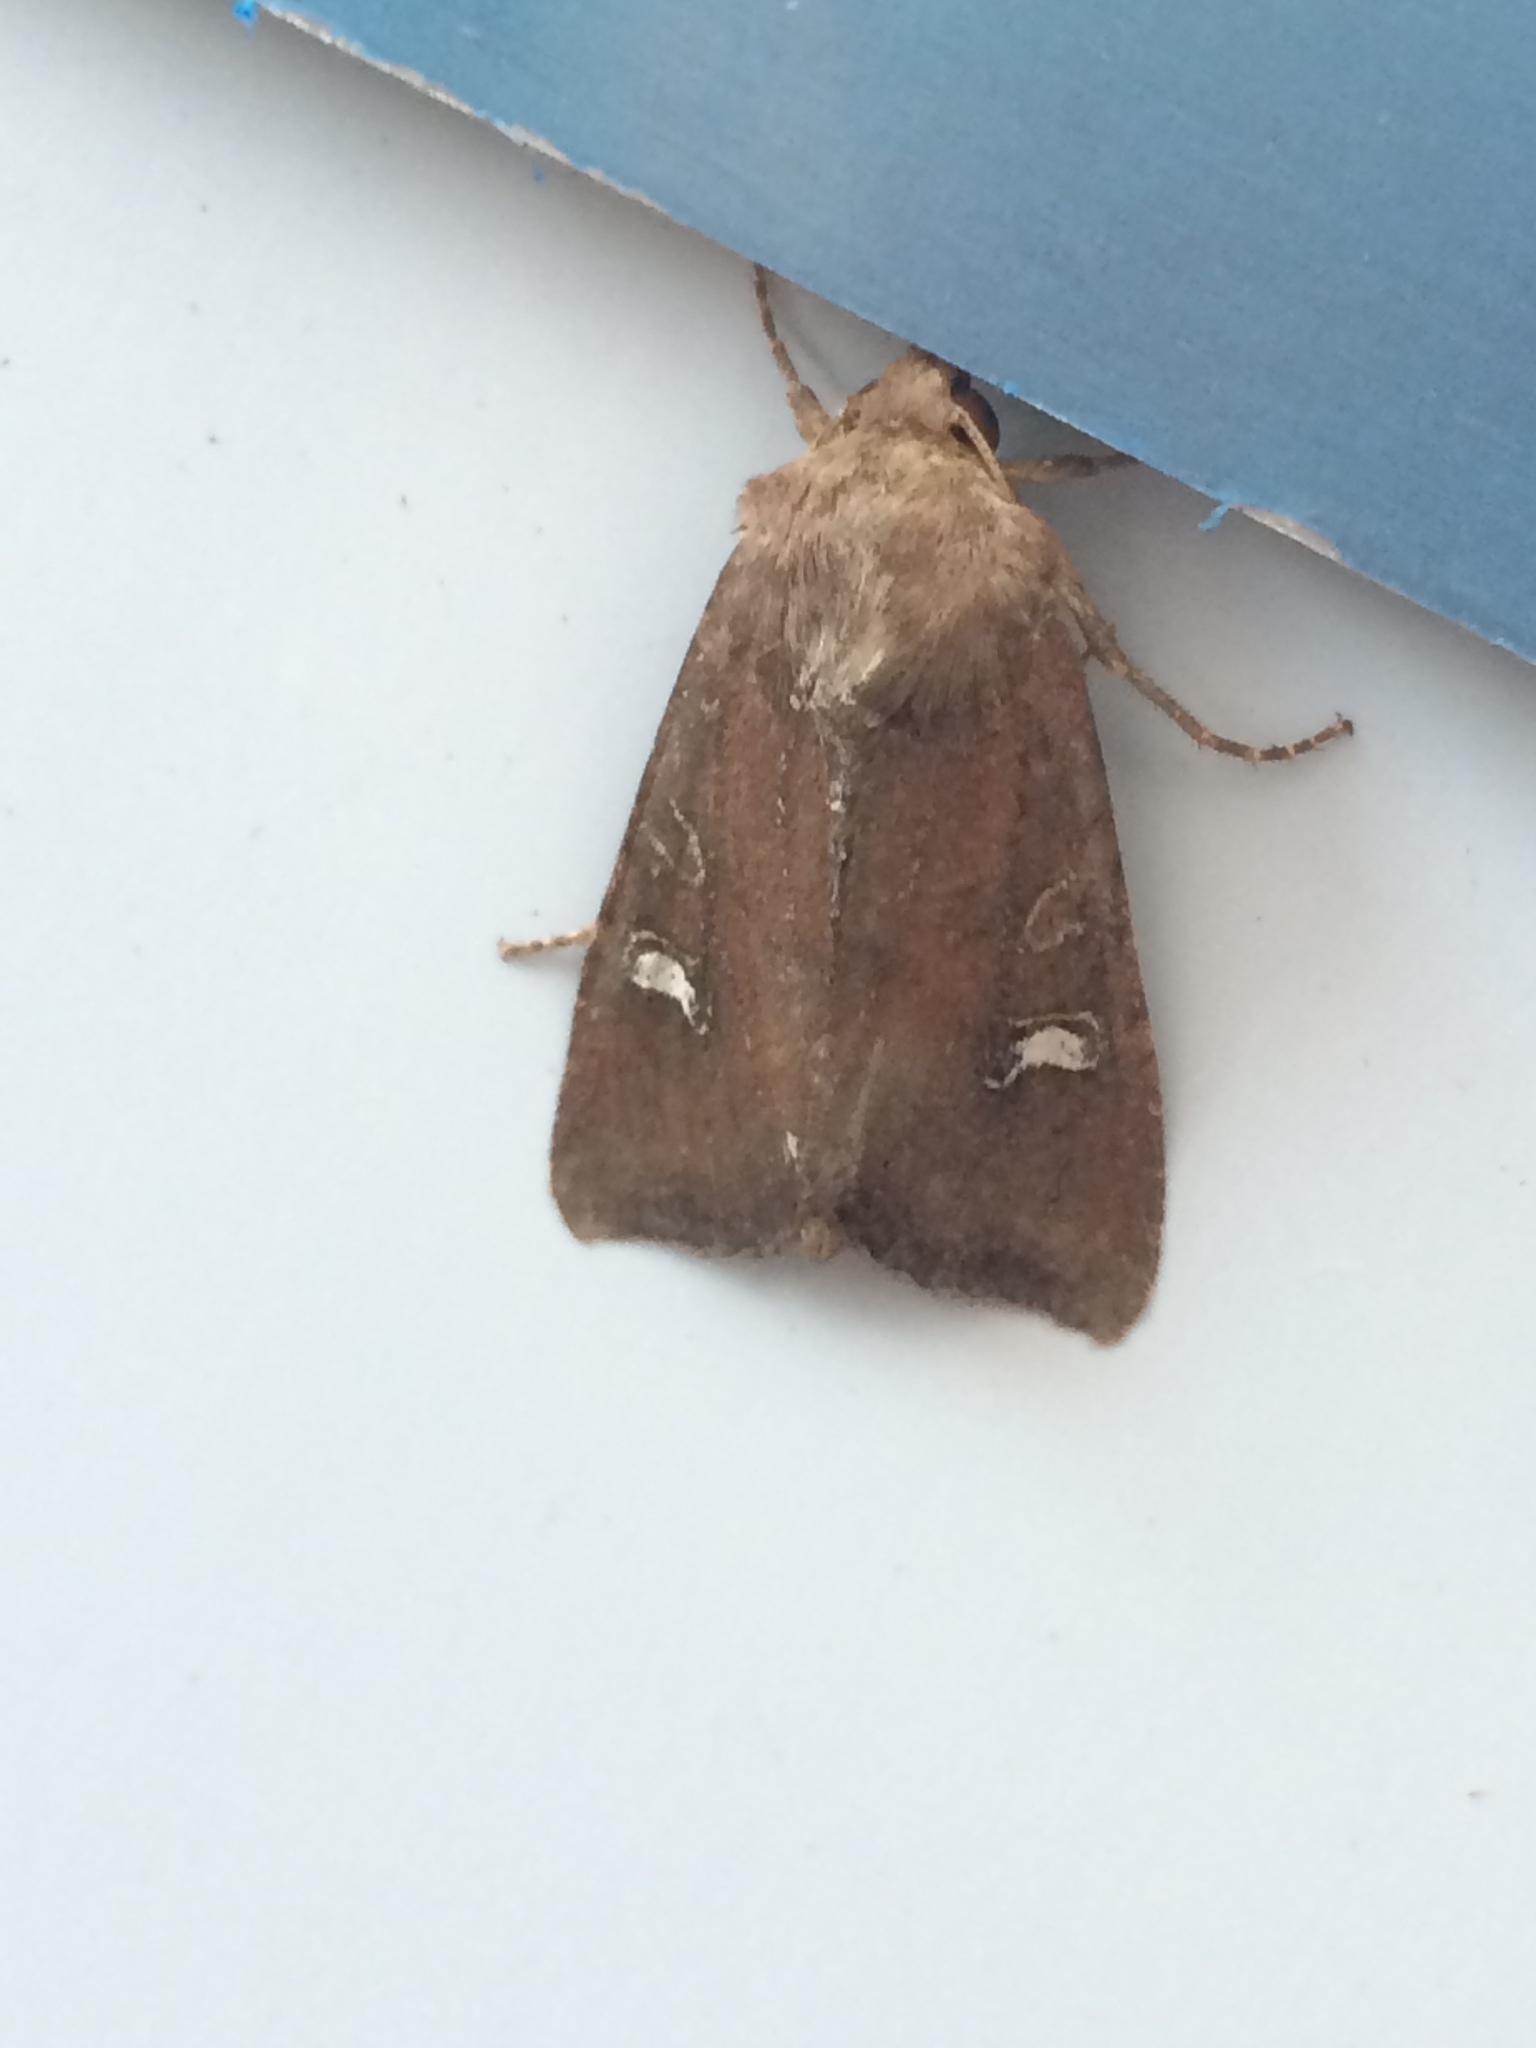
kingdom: Animalia
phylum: Arthropoda
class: Insecta
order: Lepidoptera
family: Noctuidae
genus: Helotropha
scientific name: Helotropha leucostigma
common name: The crescent
